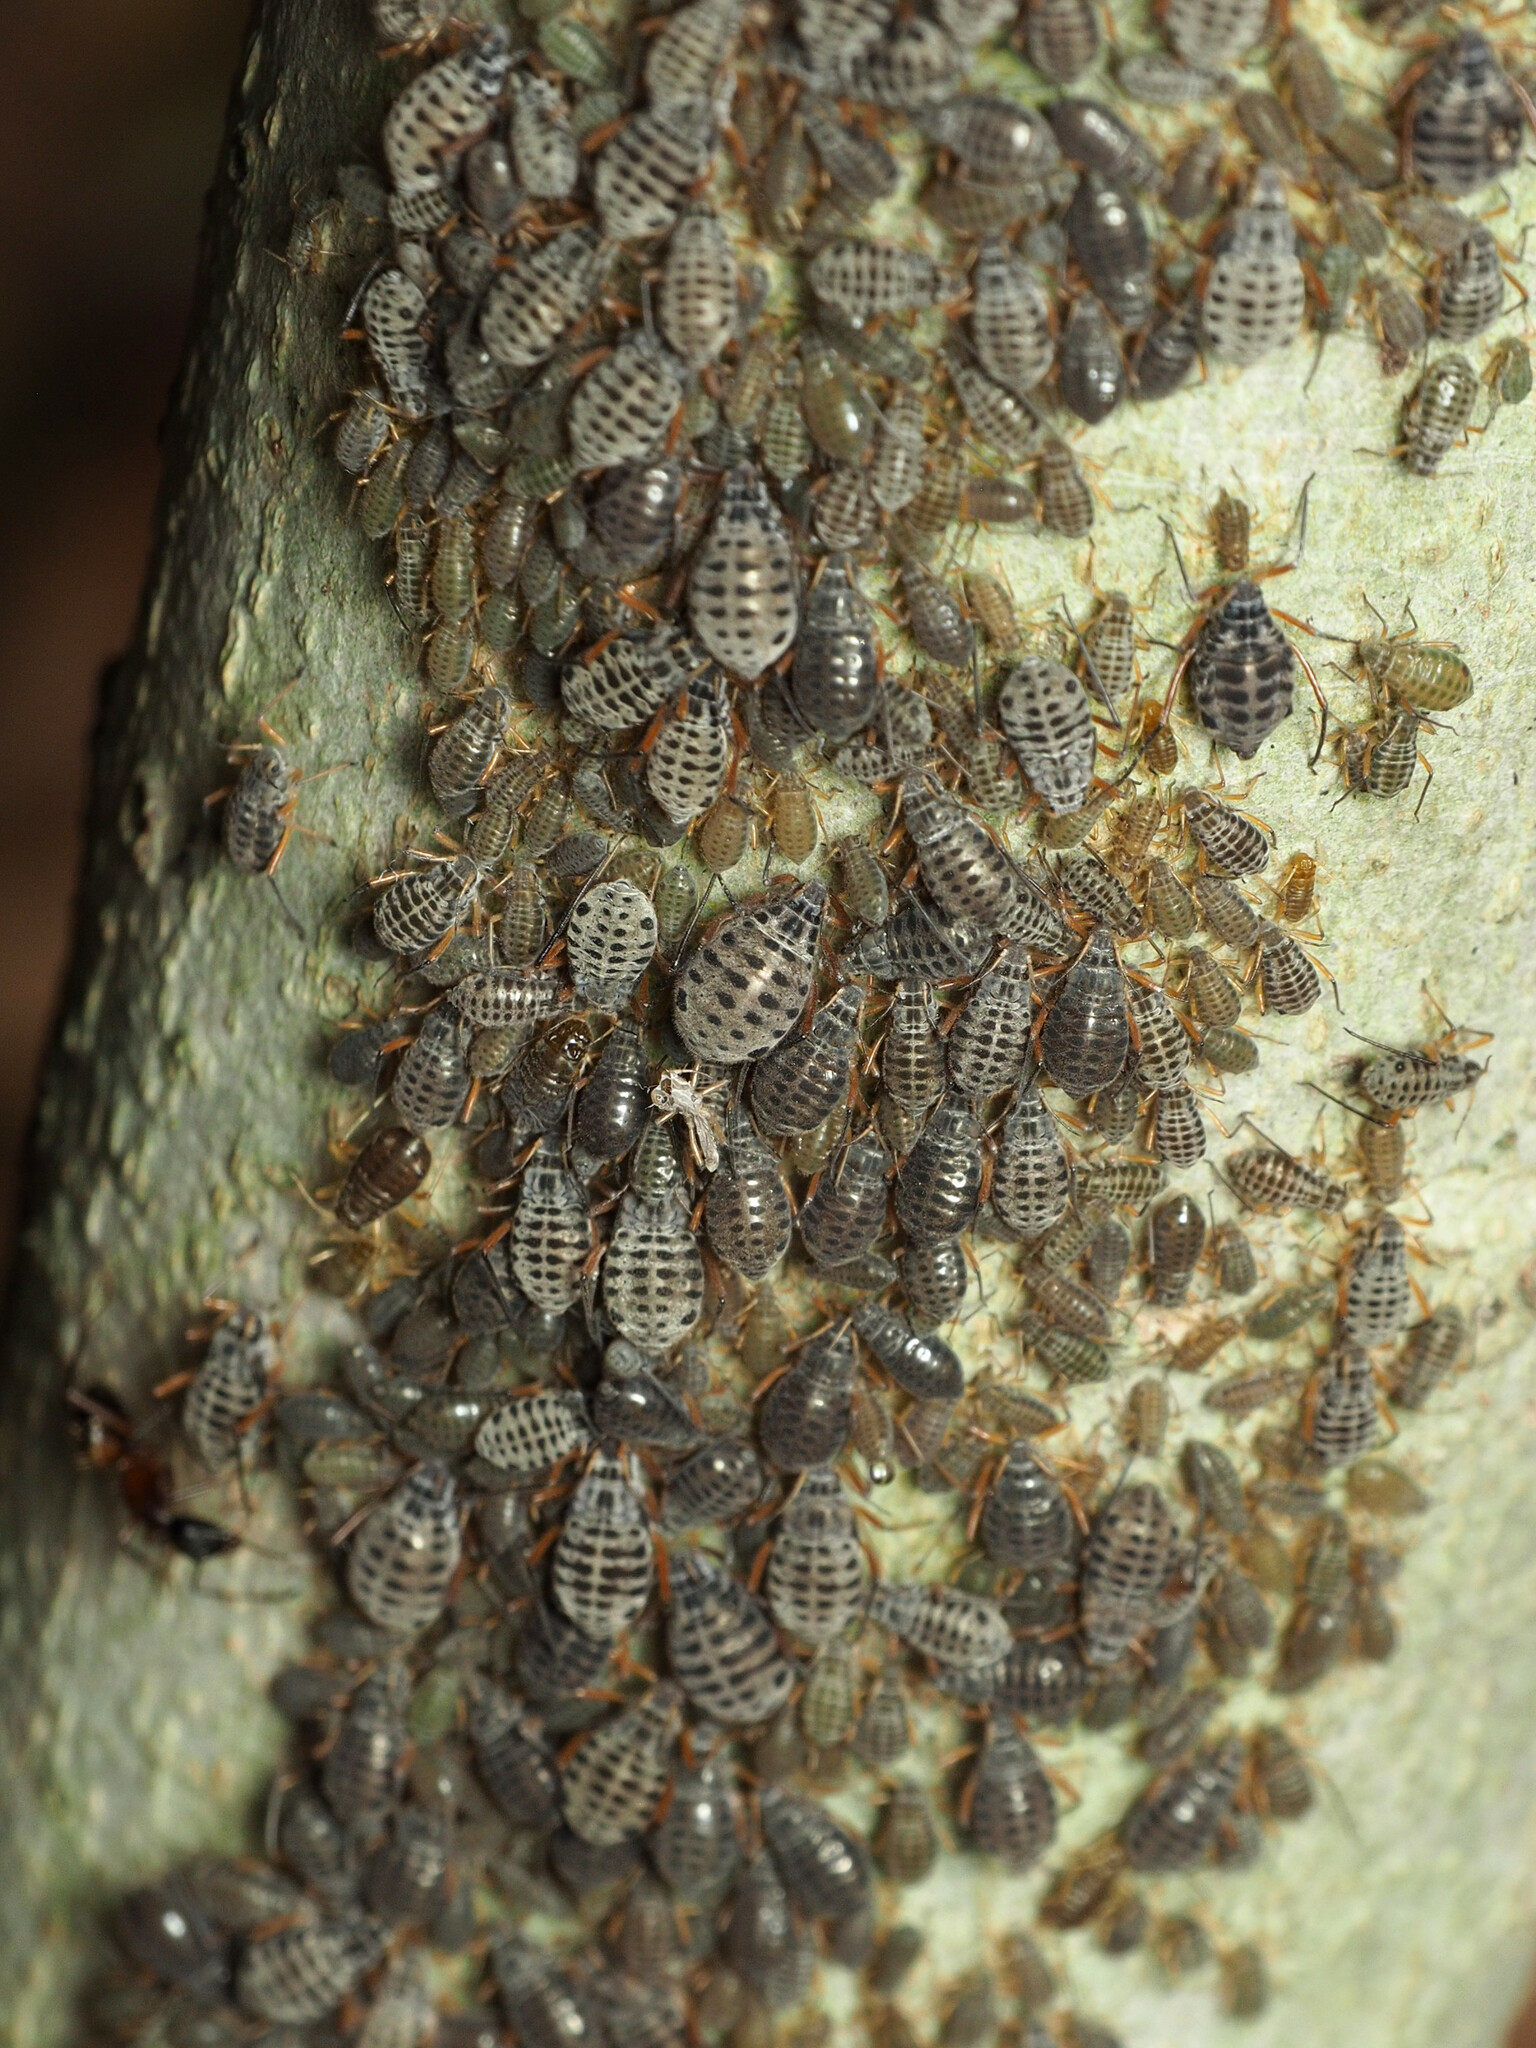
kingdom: Animalia
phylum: Arthropoda
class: Insecta
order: Hemiptera
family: Aphididae
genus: Longistigma
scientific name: Longistigma caryae
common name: Giant bark aphid
